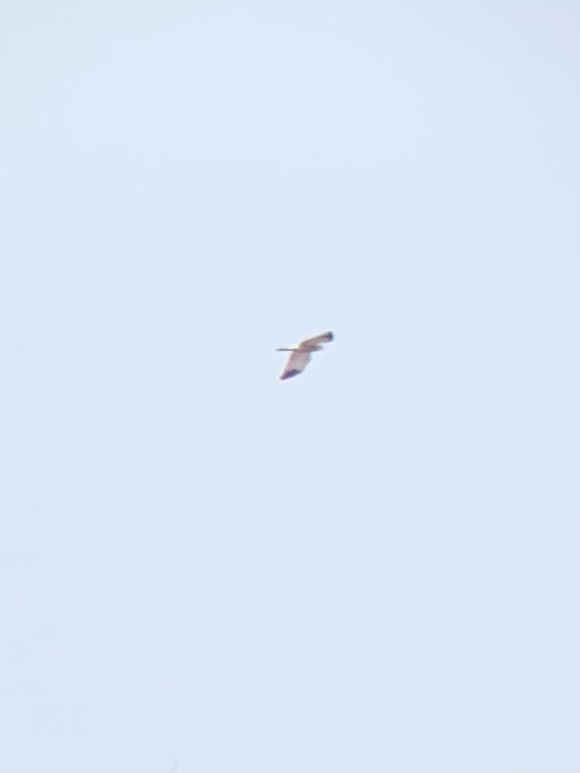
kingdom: Animalia
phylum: Chordata
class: Aves
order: Accipitriformes
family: Accipitridae
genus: Circus
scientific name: Circus aeruginosus
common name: Western marsh harrier
